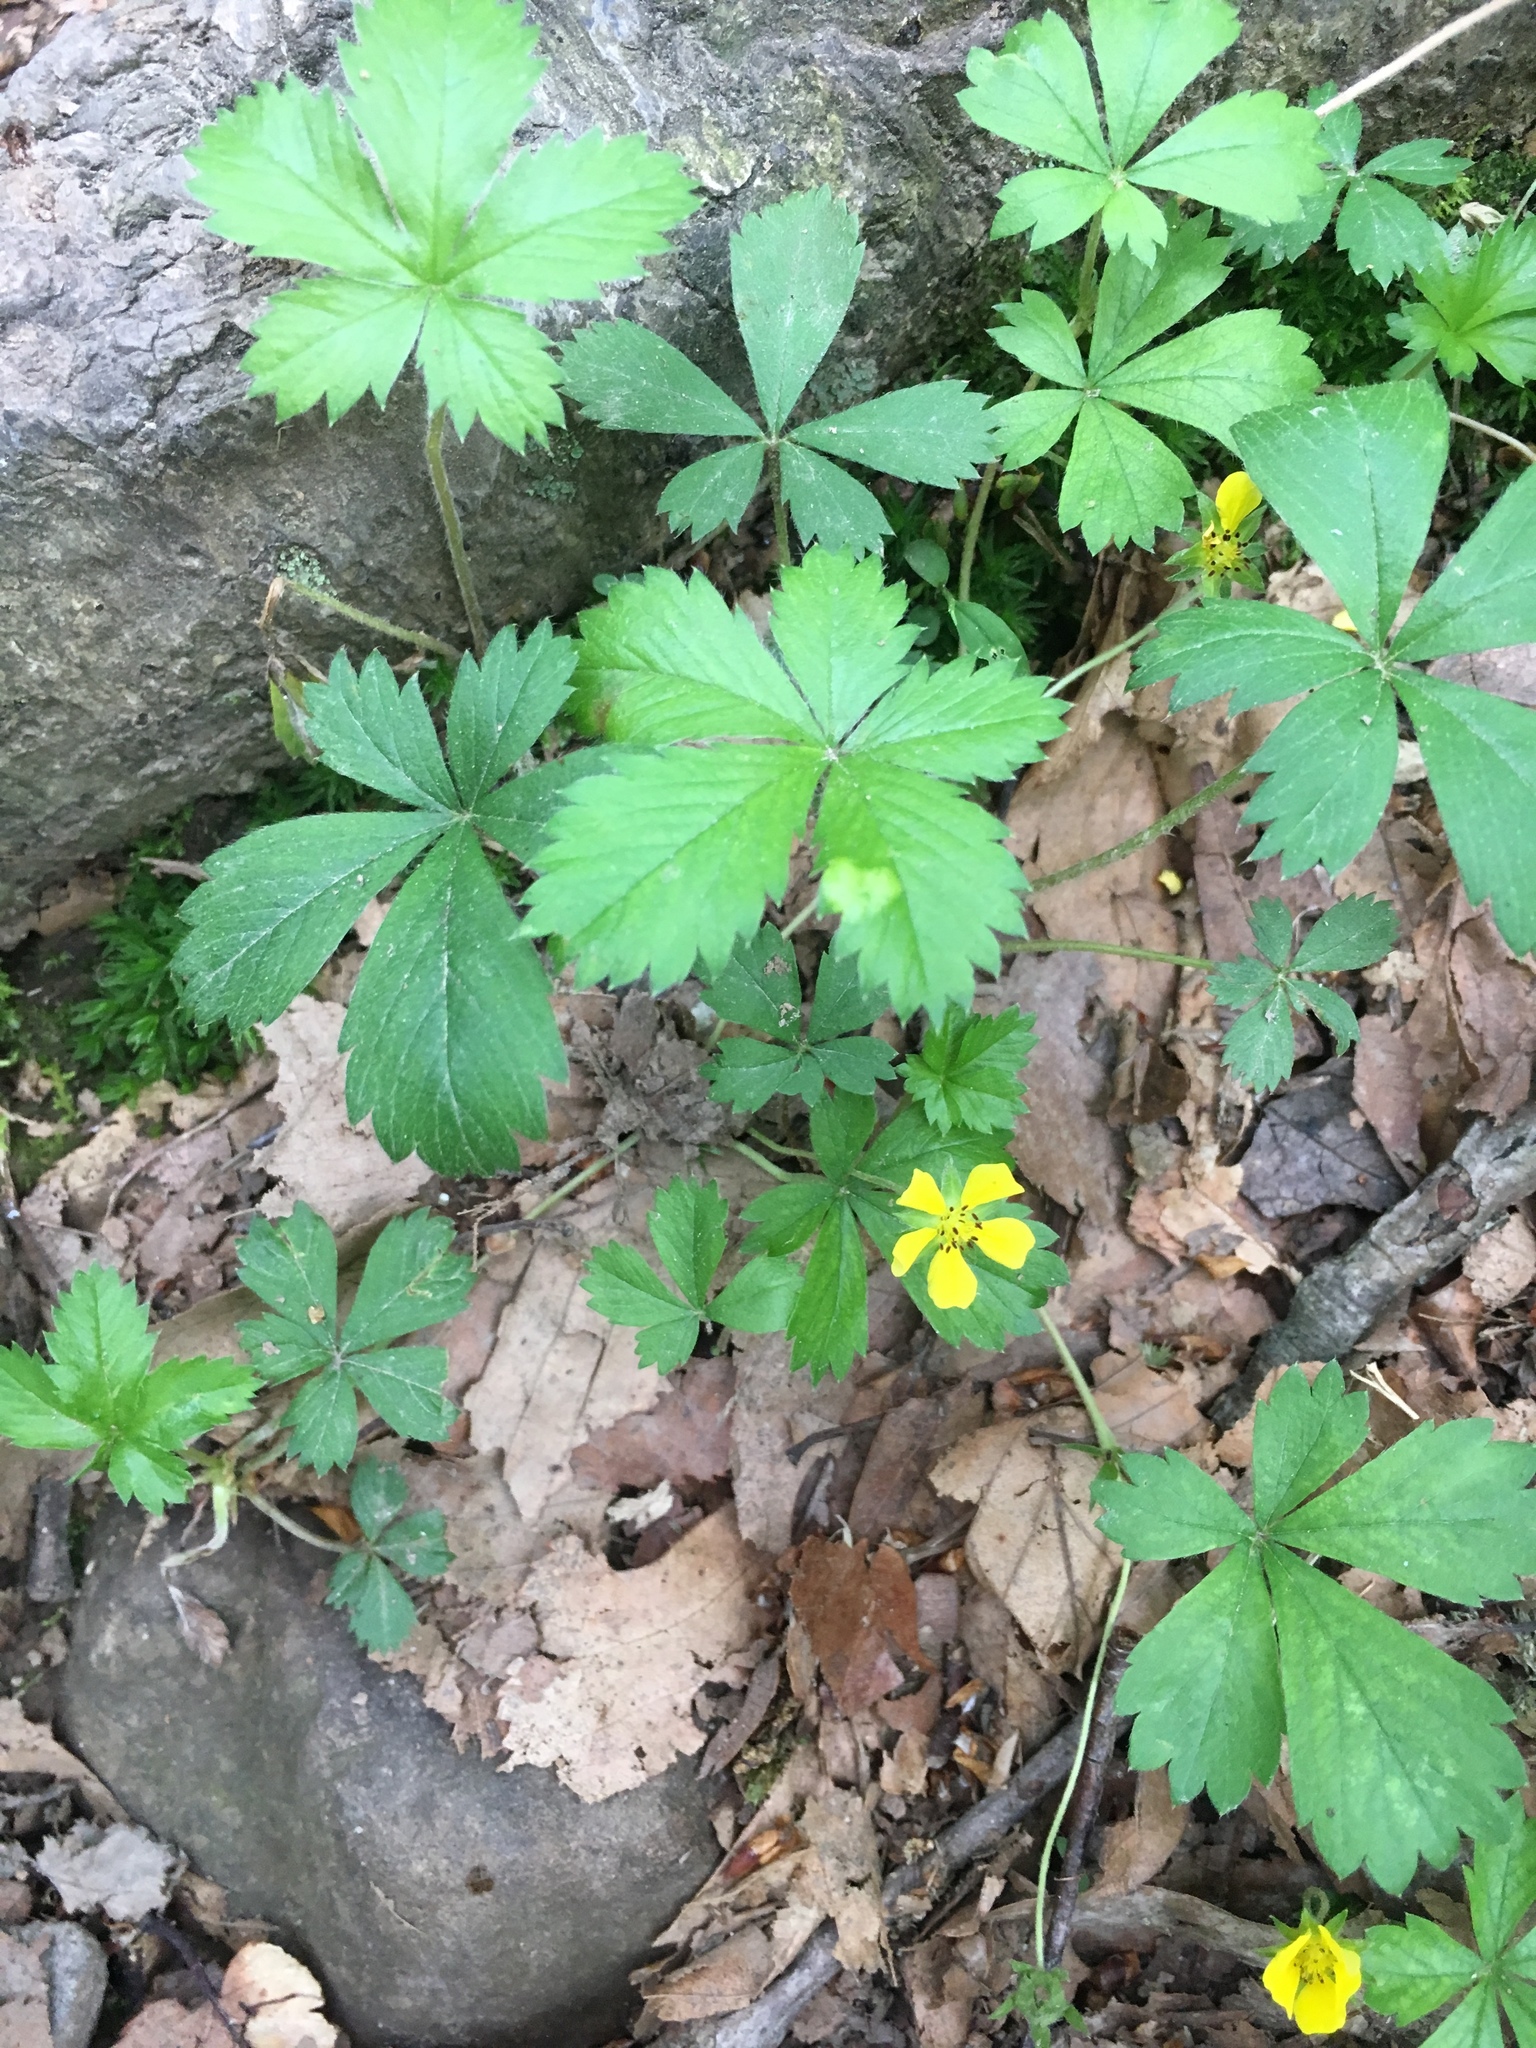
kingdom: Plantae
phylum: Tracheophyta
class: Magnoliopsida
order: Rosales
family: Rosaceae
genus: Potentilla
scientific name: Potentilla canadensis
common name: Canada cinquefoil
